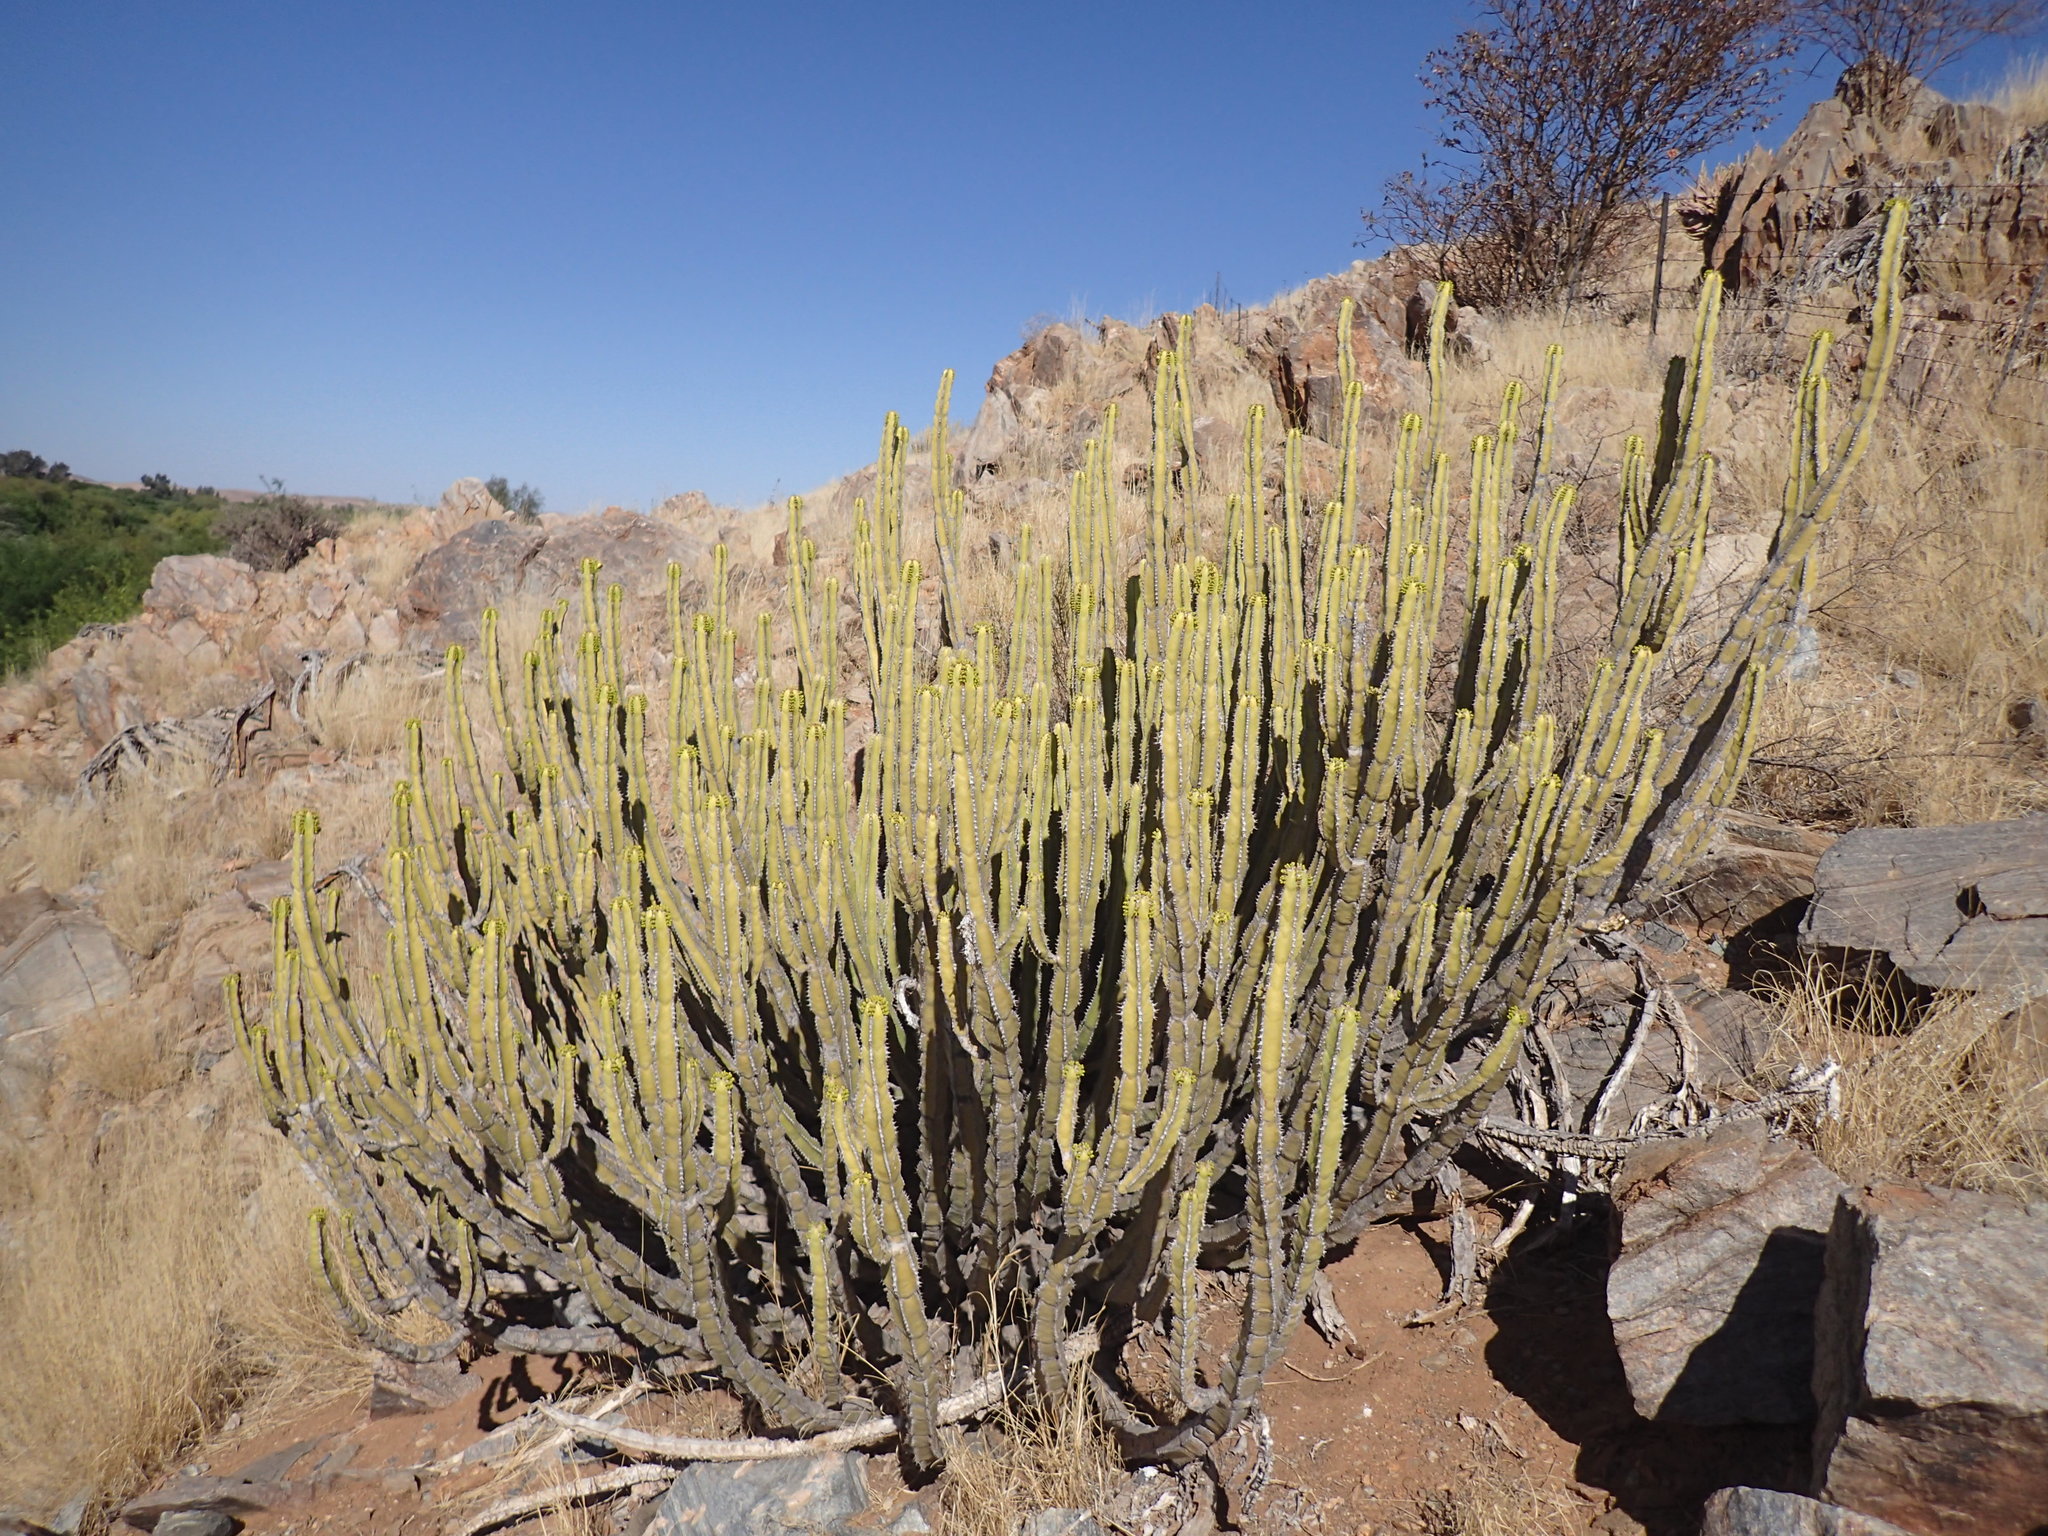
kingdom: Plantae
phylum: Tracheophyta
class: Magnoliopsida
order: Malpighiales
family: Euphorbiaceae
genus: Euphorbia
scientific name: Euphorbia avasmontana
